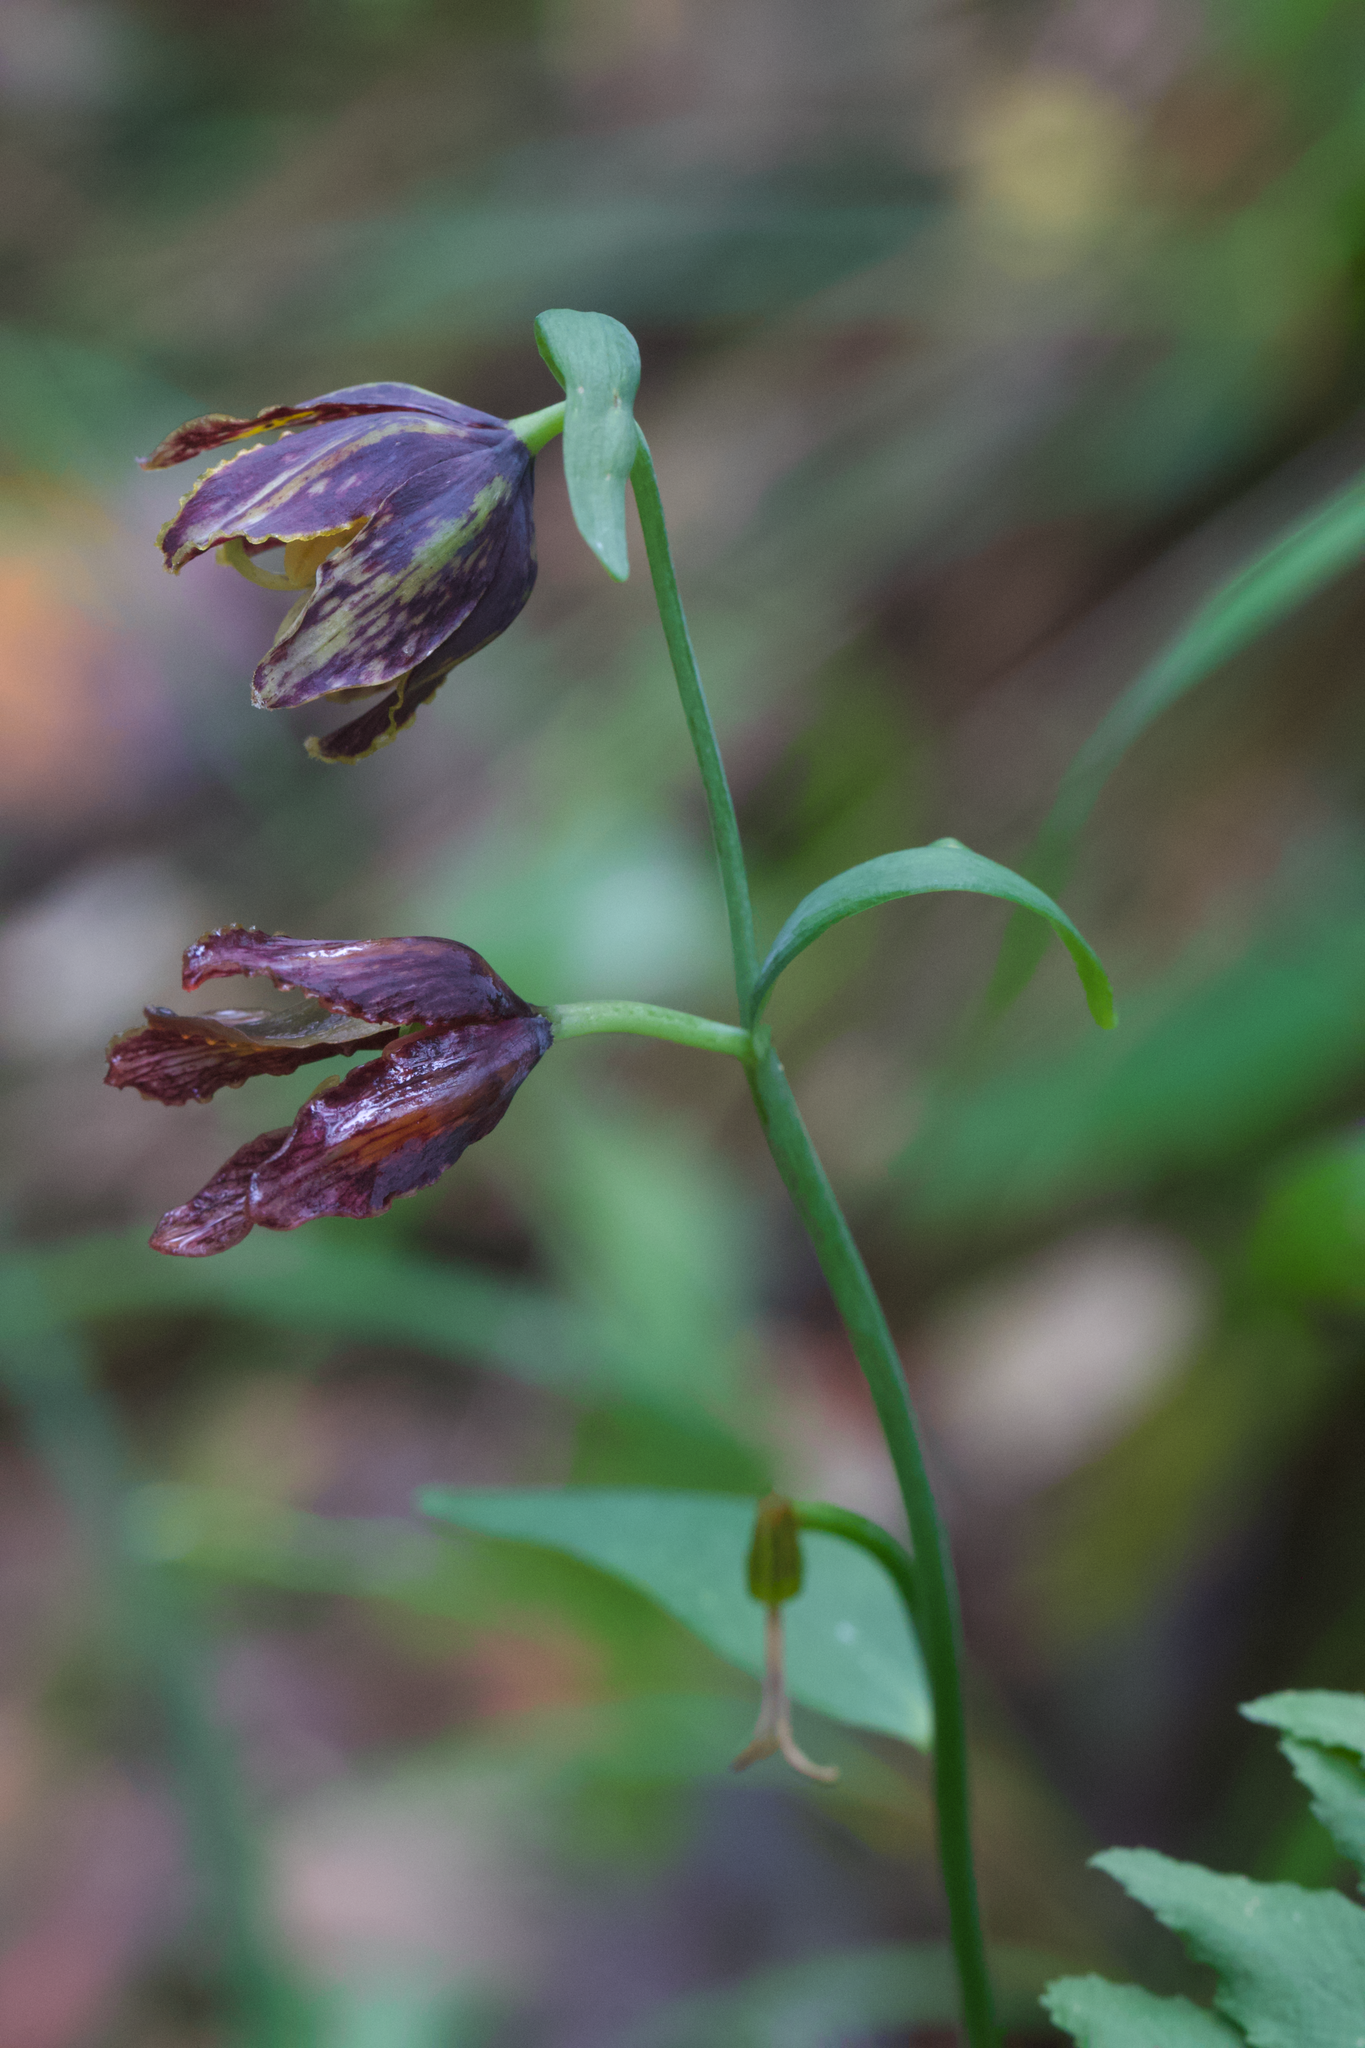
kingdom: Plantae
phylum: Tracheophyta
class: Liliopsida
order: Liliales
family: Liliaceae
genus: Fritillaria
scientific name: Fritillaria affinis
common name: Ojai fritillary
